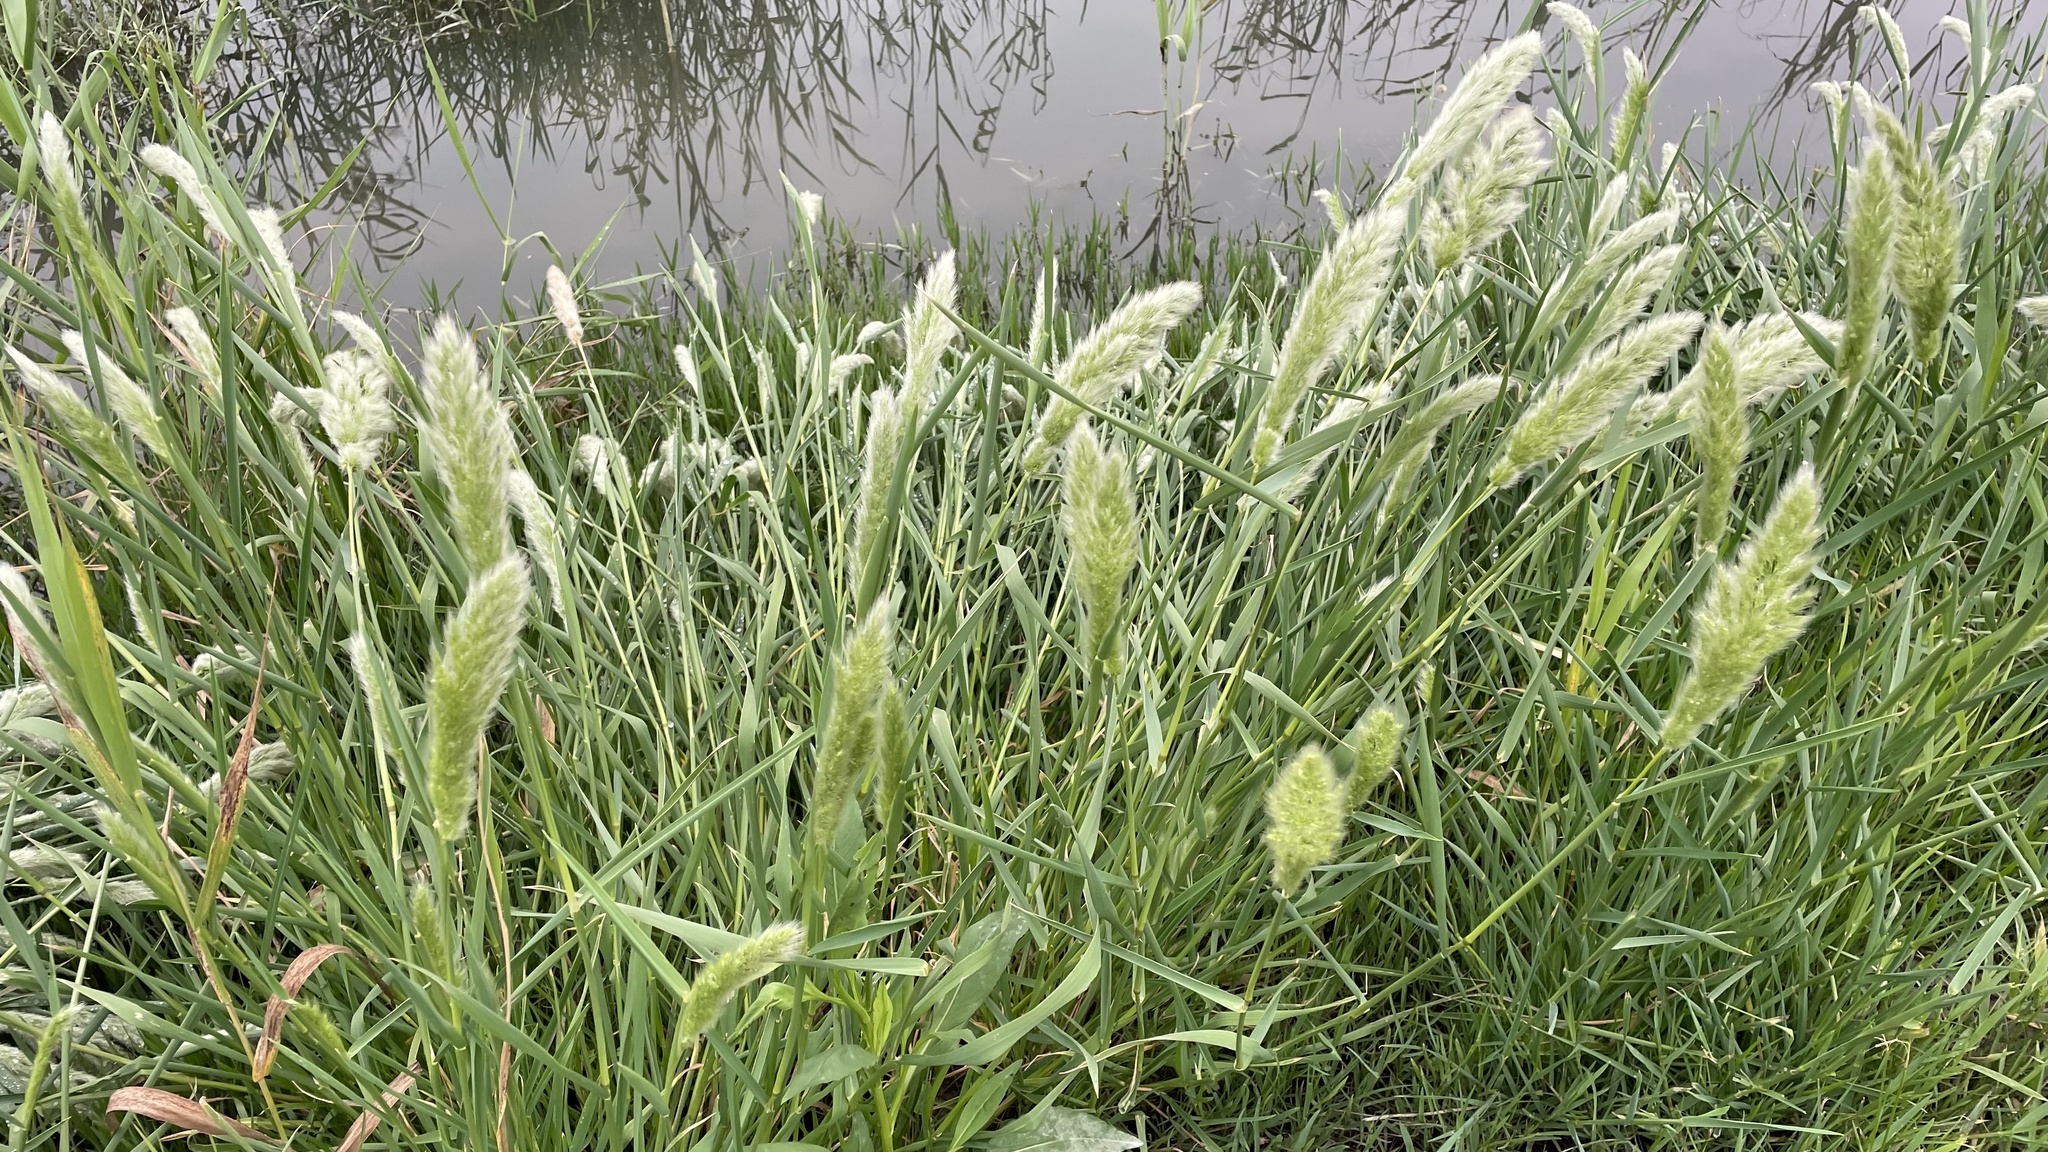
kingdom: Plantae
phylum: Tracheophyta
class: Liliopsida
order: Poales
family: Poaceae
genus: Polypogon
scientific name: Polypogon monspeliensis
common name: Annual rabbitsfoot grass
